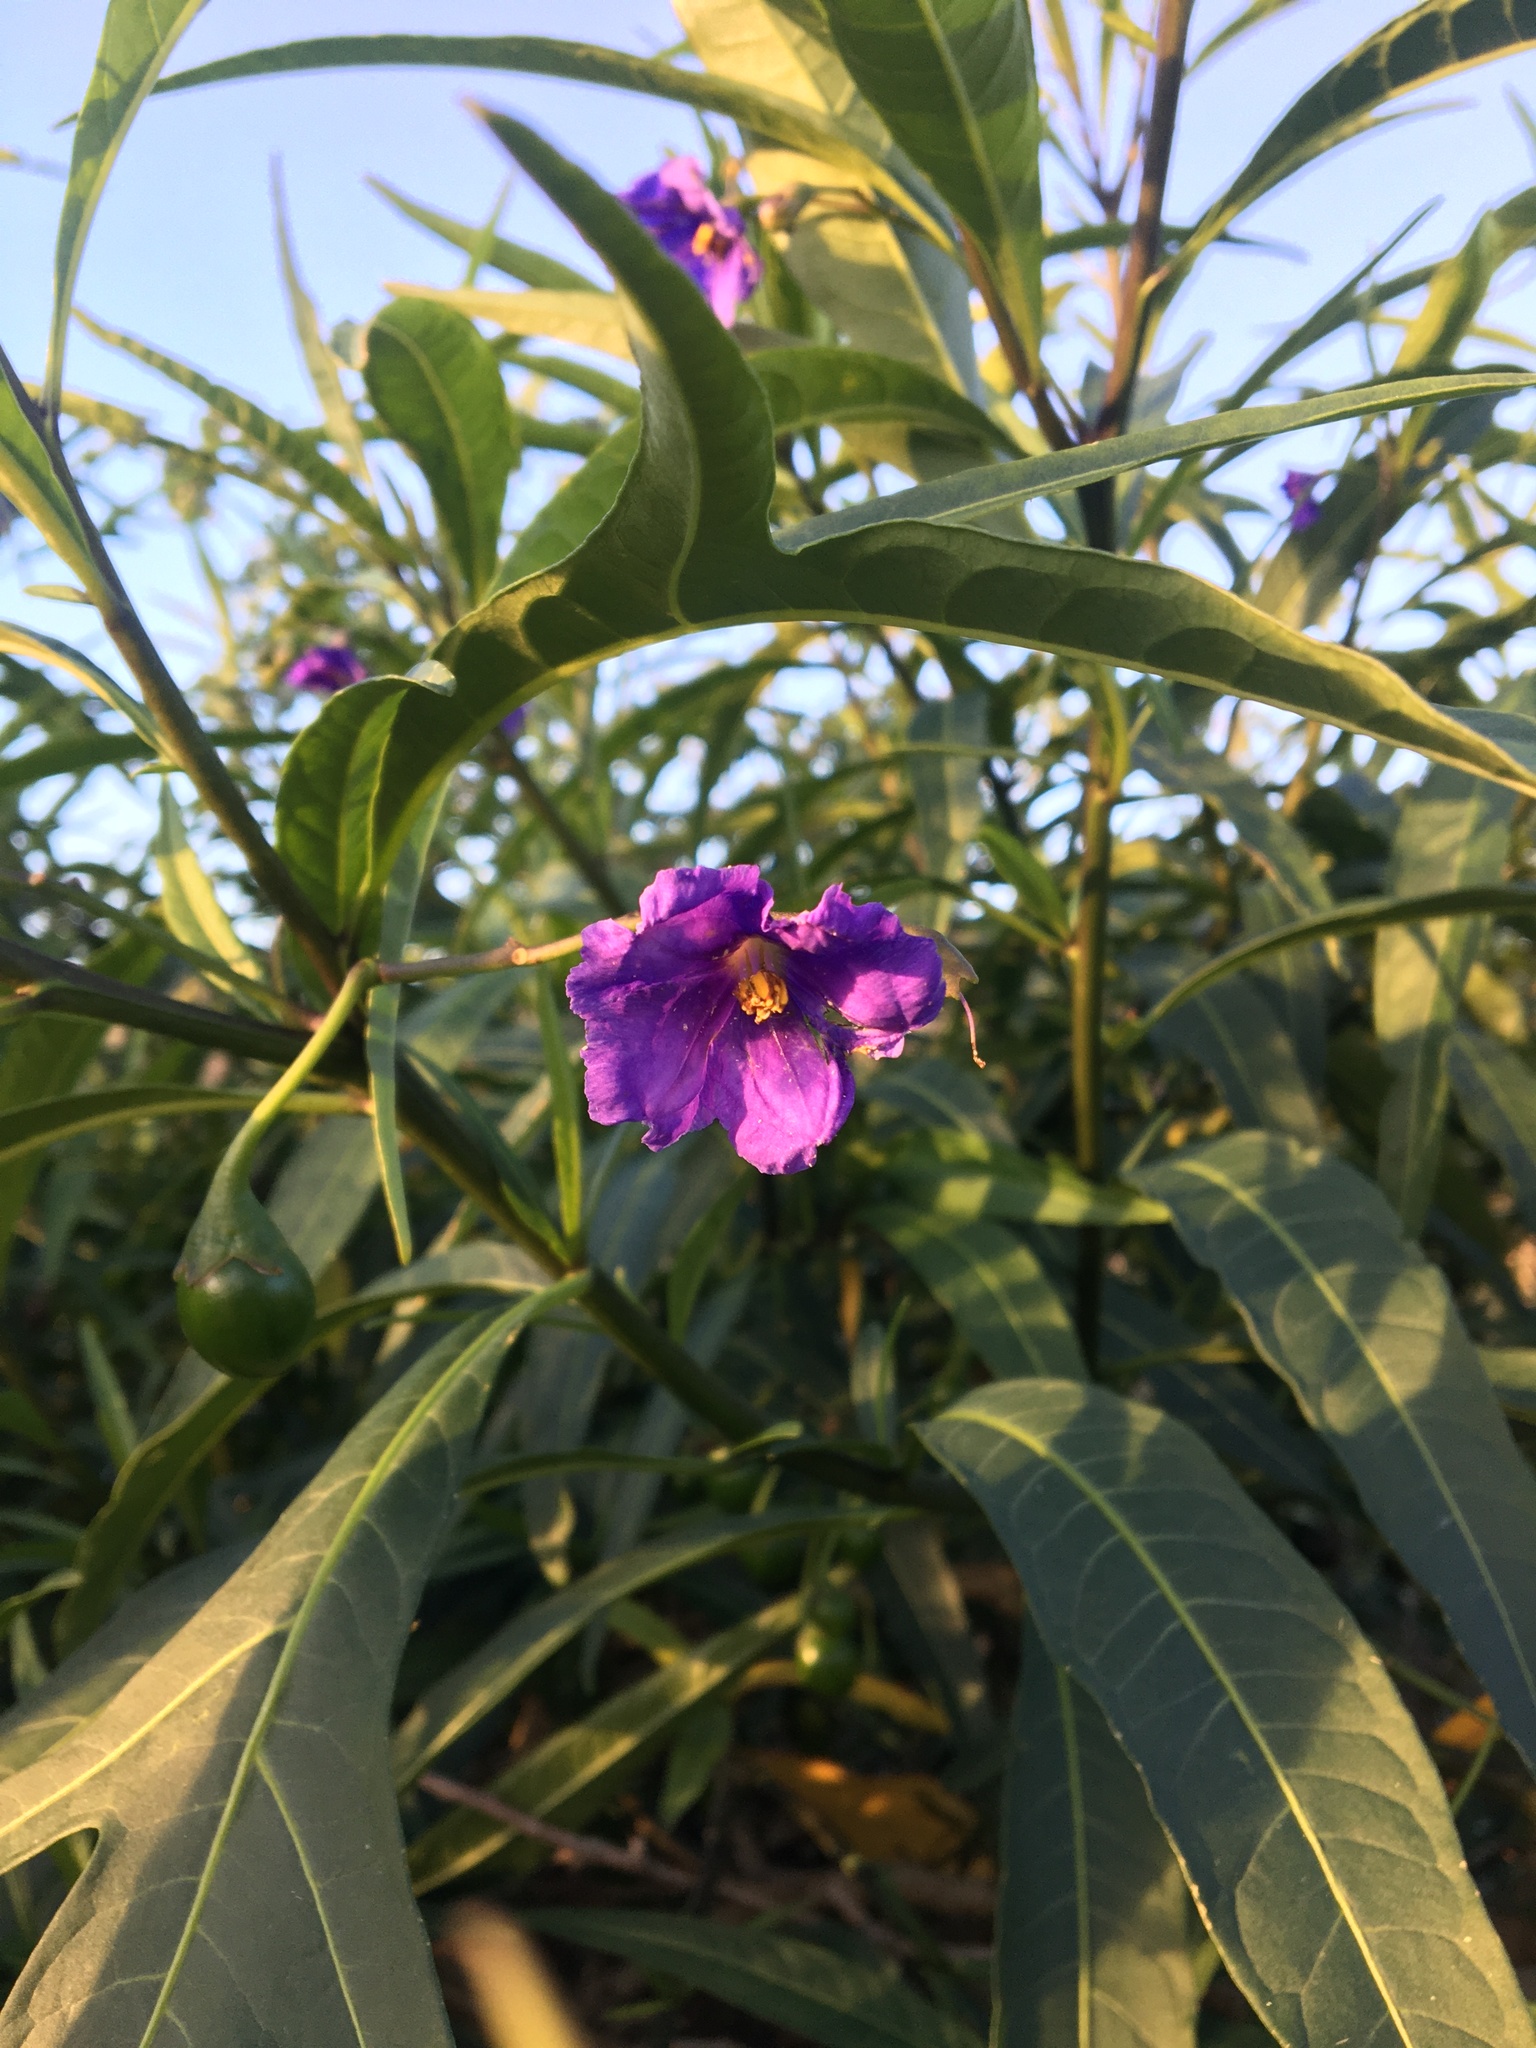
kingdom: Plantae
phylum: Tracheophyta
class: Magnoliopsida
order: Solanales
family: Solanaceae
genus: Solanum
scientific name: Solanum laciniatum
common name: Kangaroo-apple
